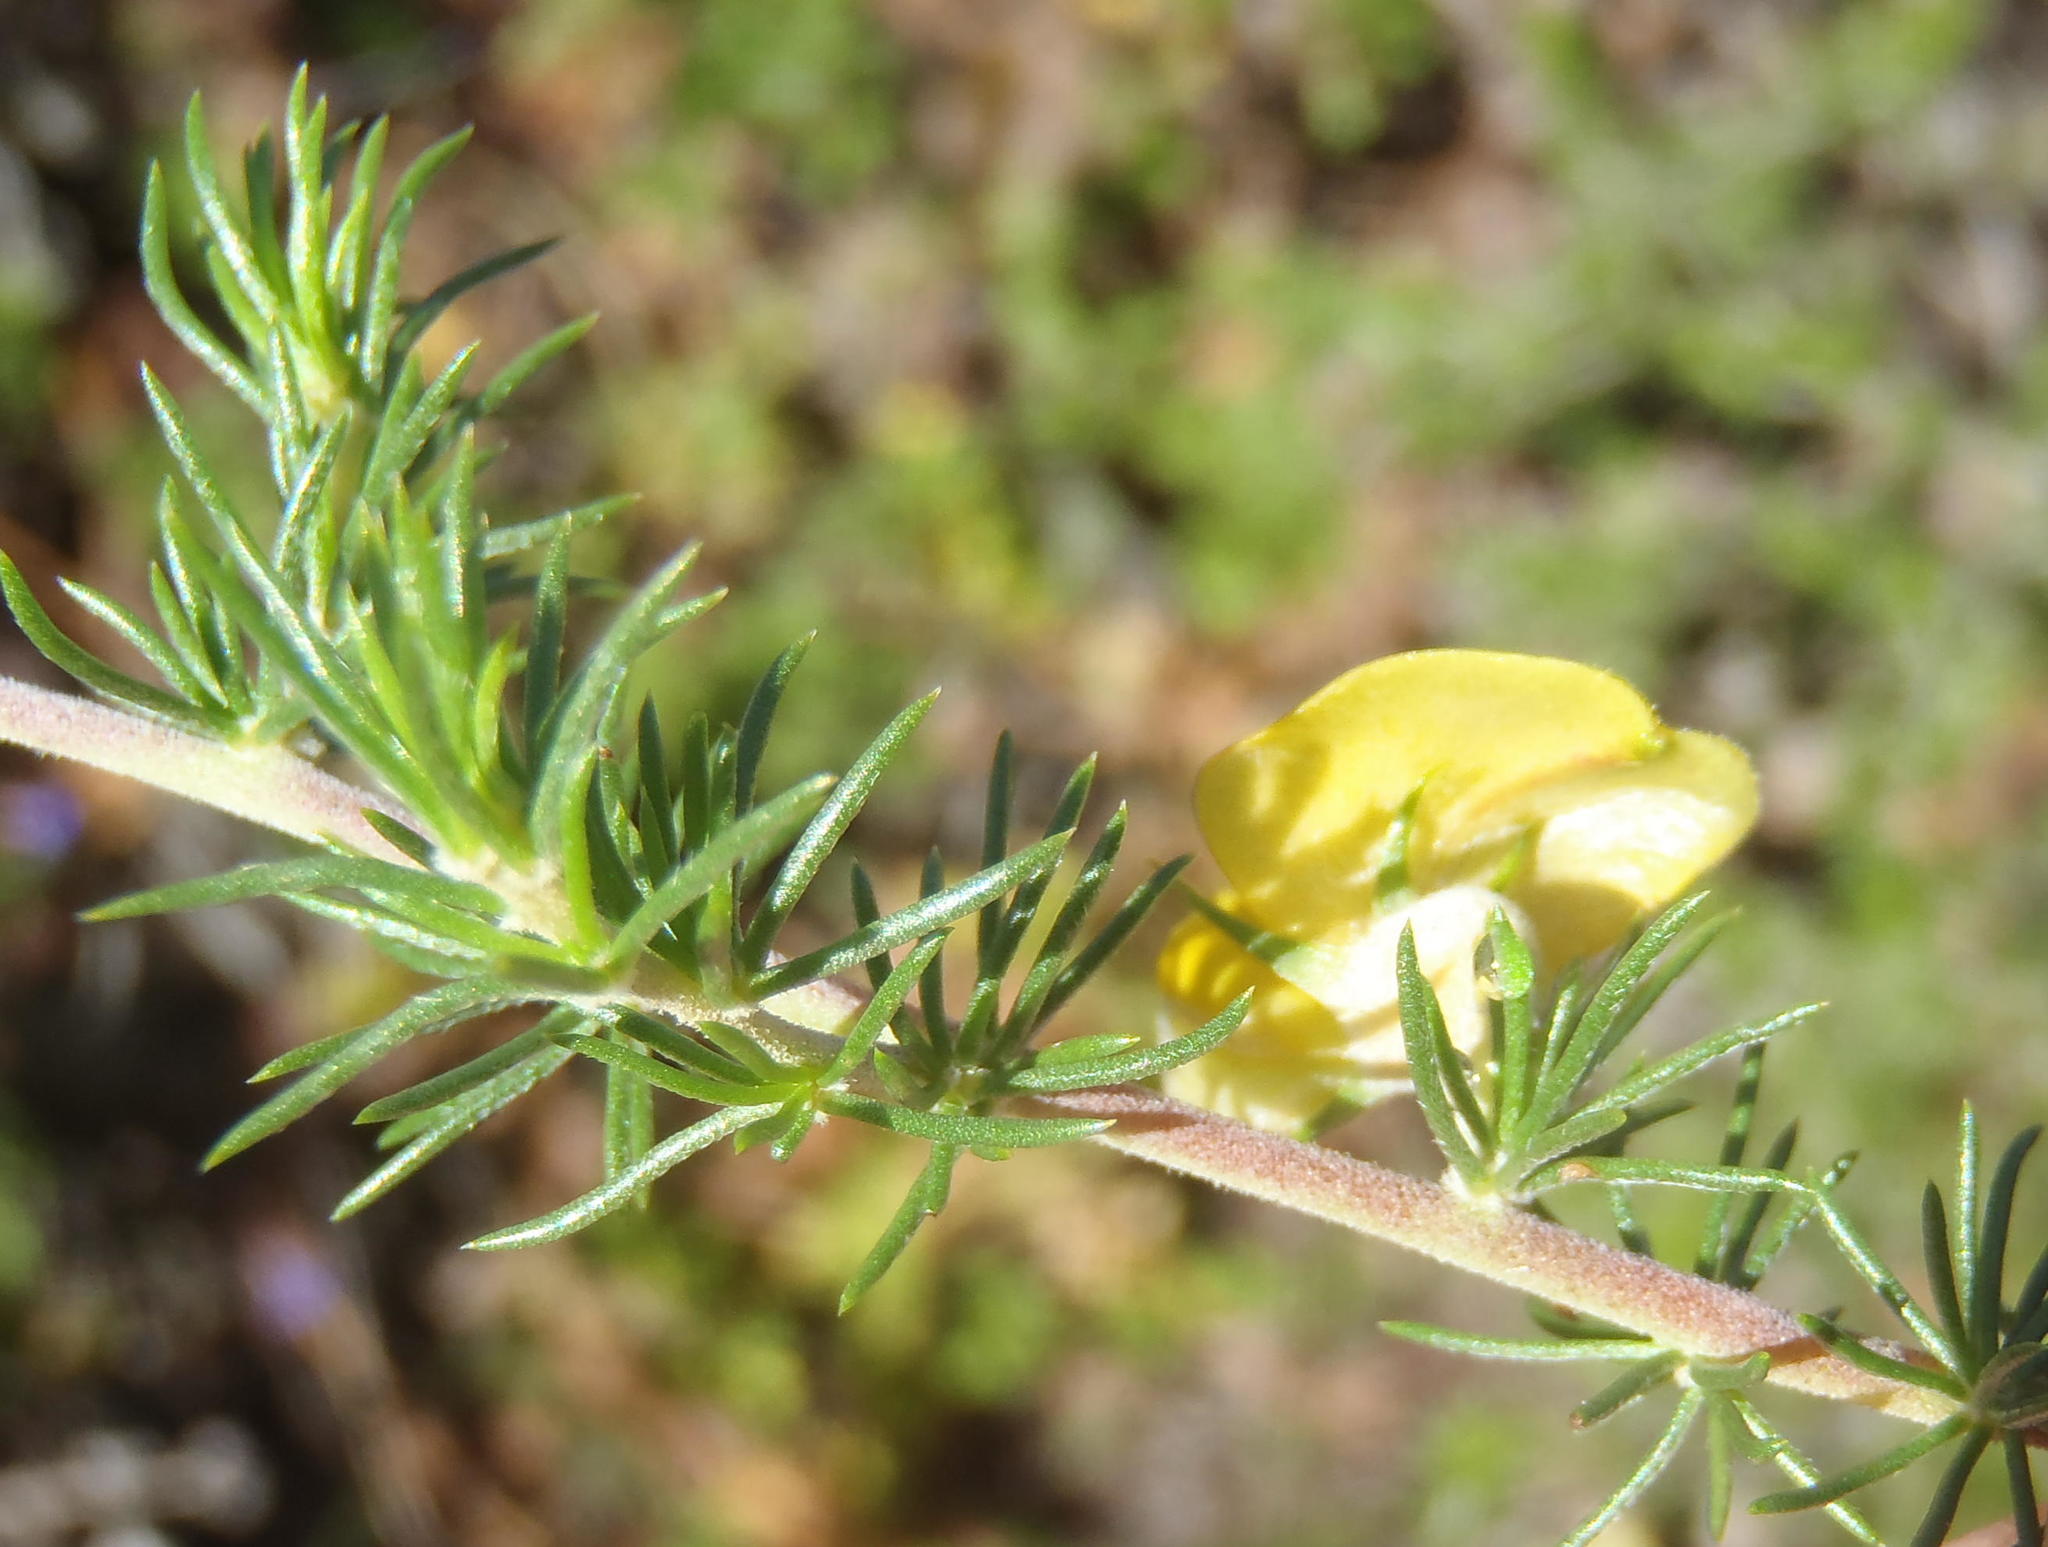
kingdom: Plantae
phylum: Tracheophyta
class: Magnoliopsida
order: Fabales
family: Fabaceae
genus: Aspalathus
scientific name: Aspalathus teres
